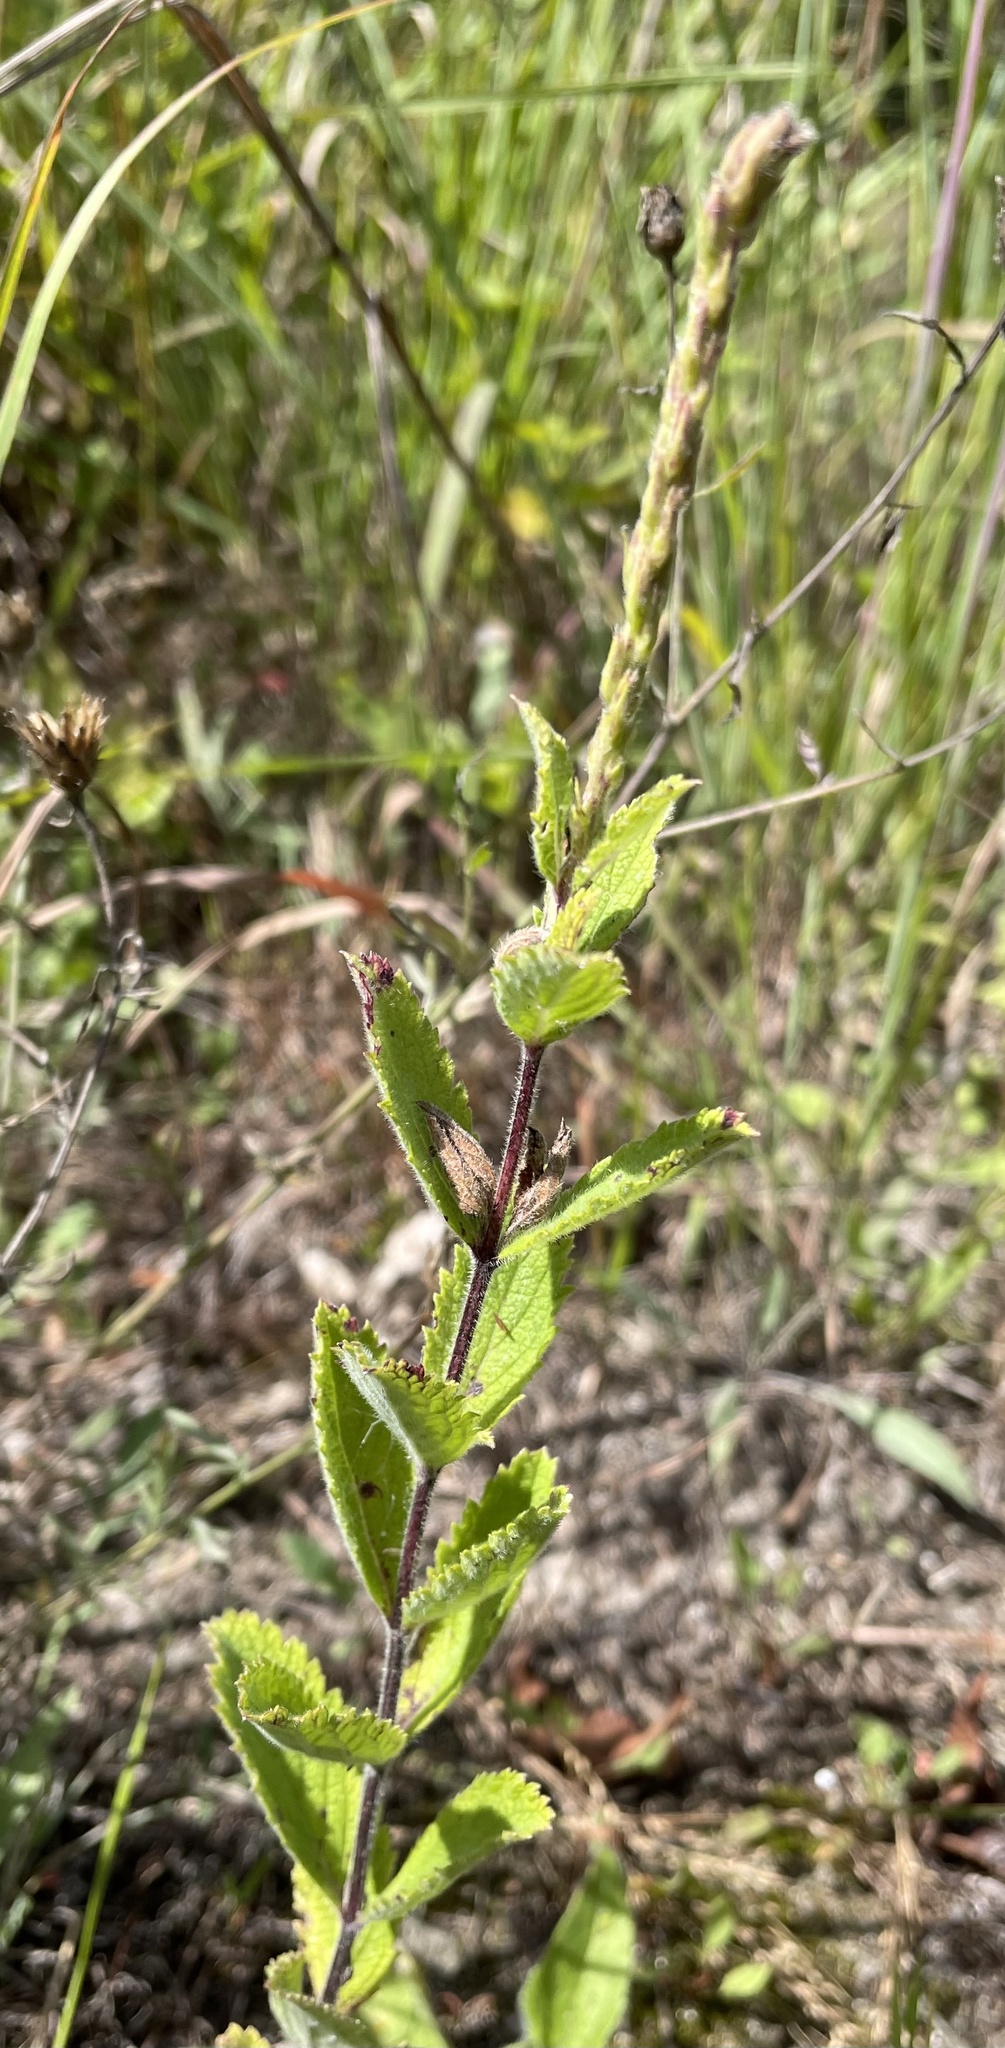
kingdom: Plantae
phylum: Tracheophyta
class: Magnoliopsida
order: Lamiales
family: Verbenaceae
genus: Verbena
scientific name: Verbena stricta
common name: Hoary vervain
